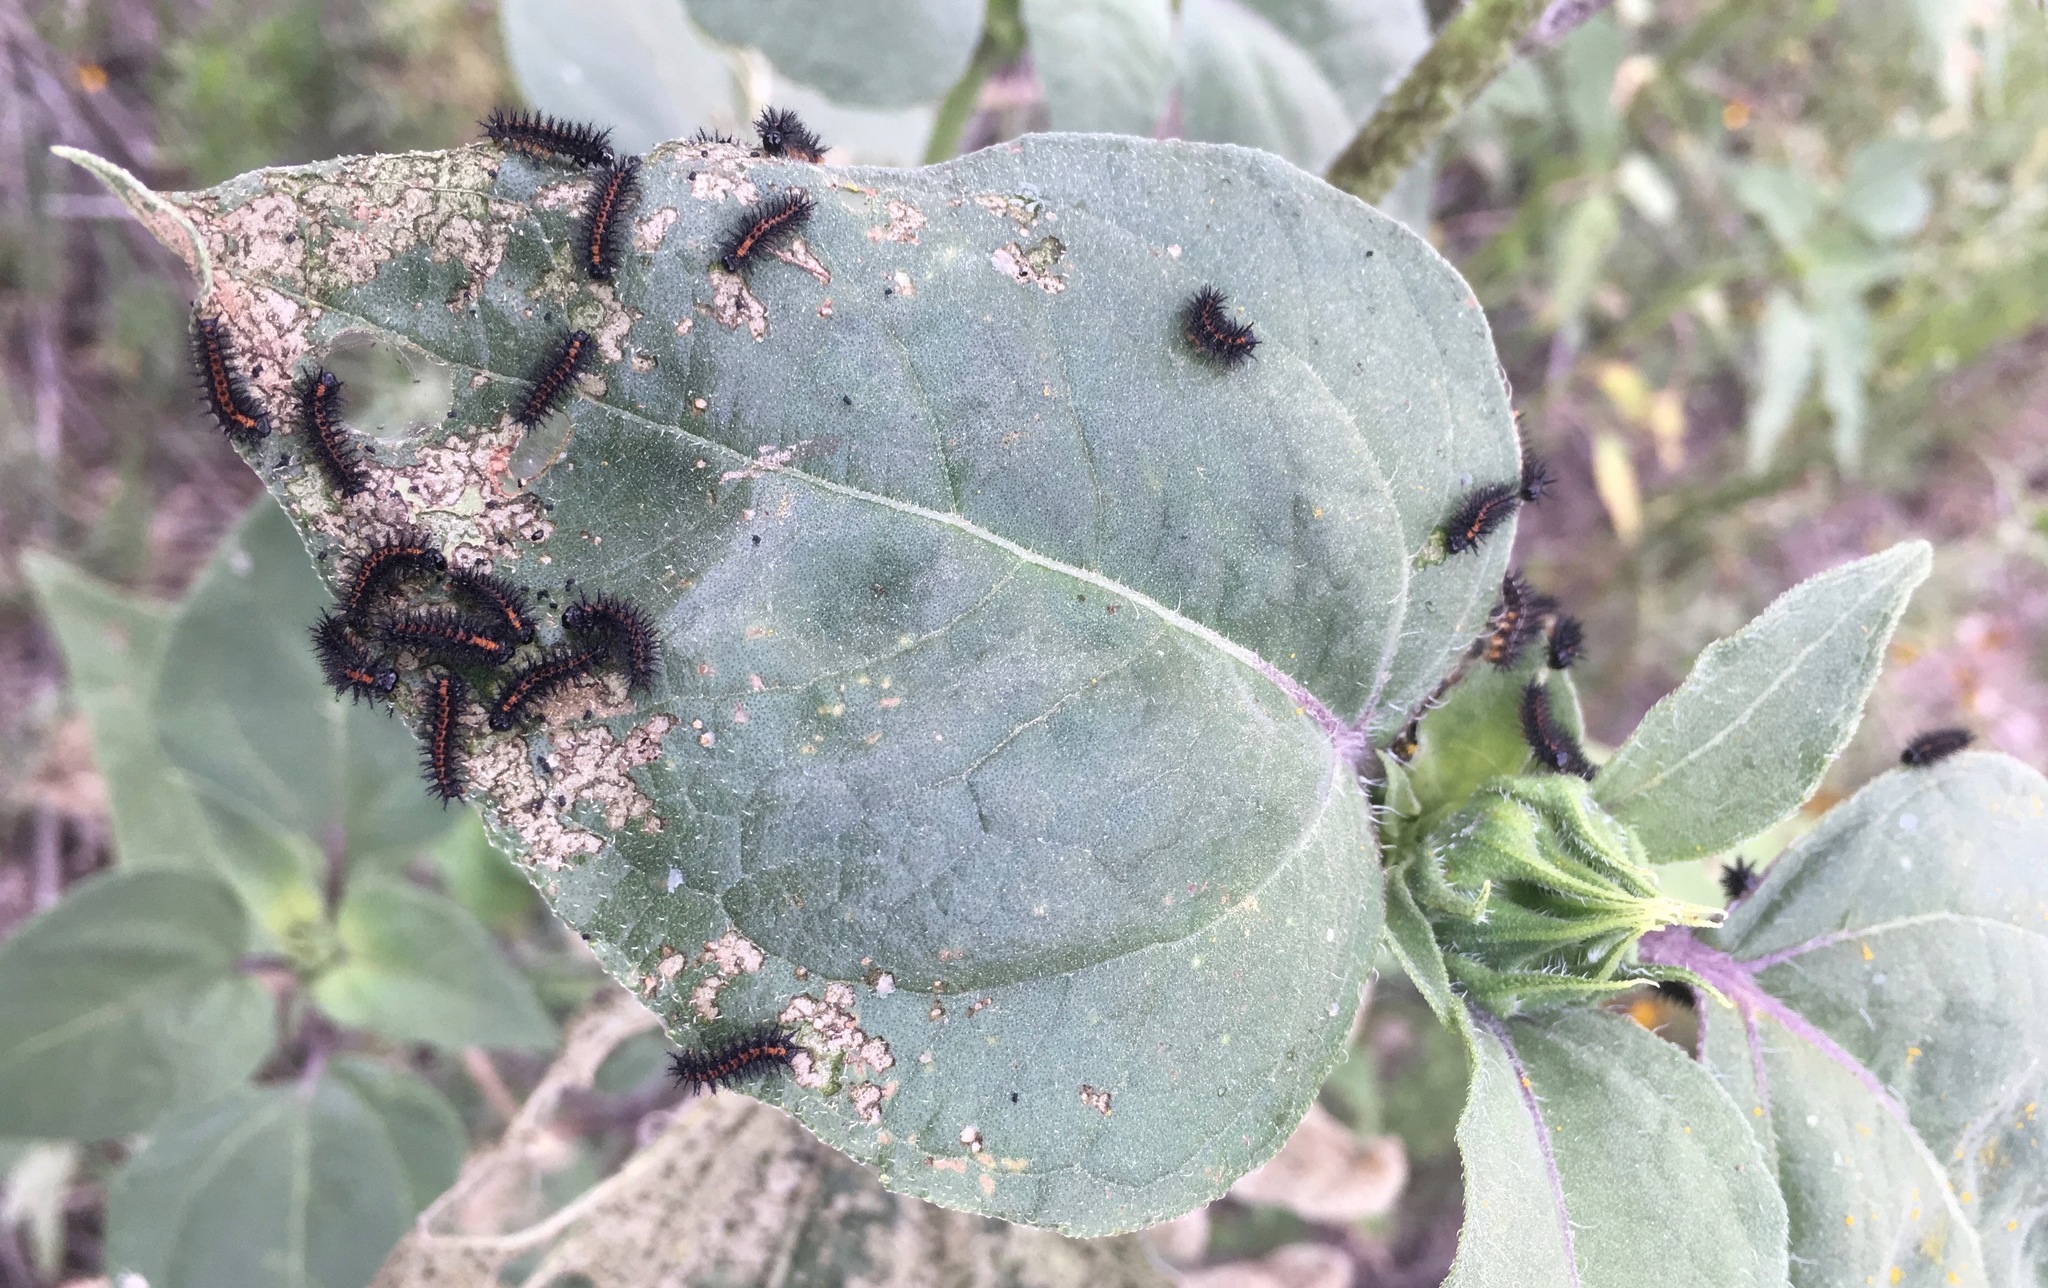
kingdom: Animalia
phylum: Arthropoda
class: Insecta
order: Lepidoptera
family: Nymphalidae
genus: Chlosyne
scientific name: Chlosyne lacinia
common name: Bordered patch
